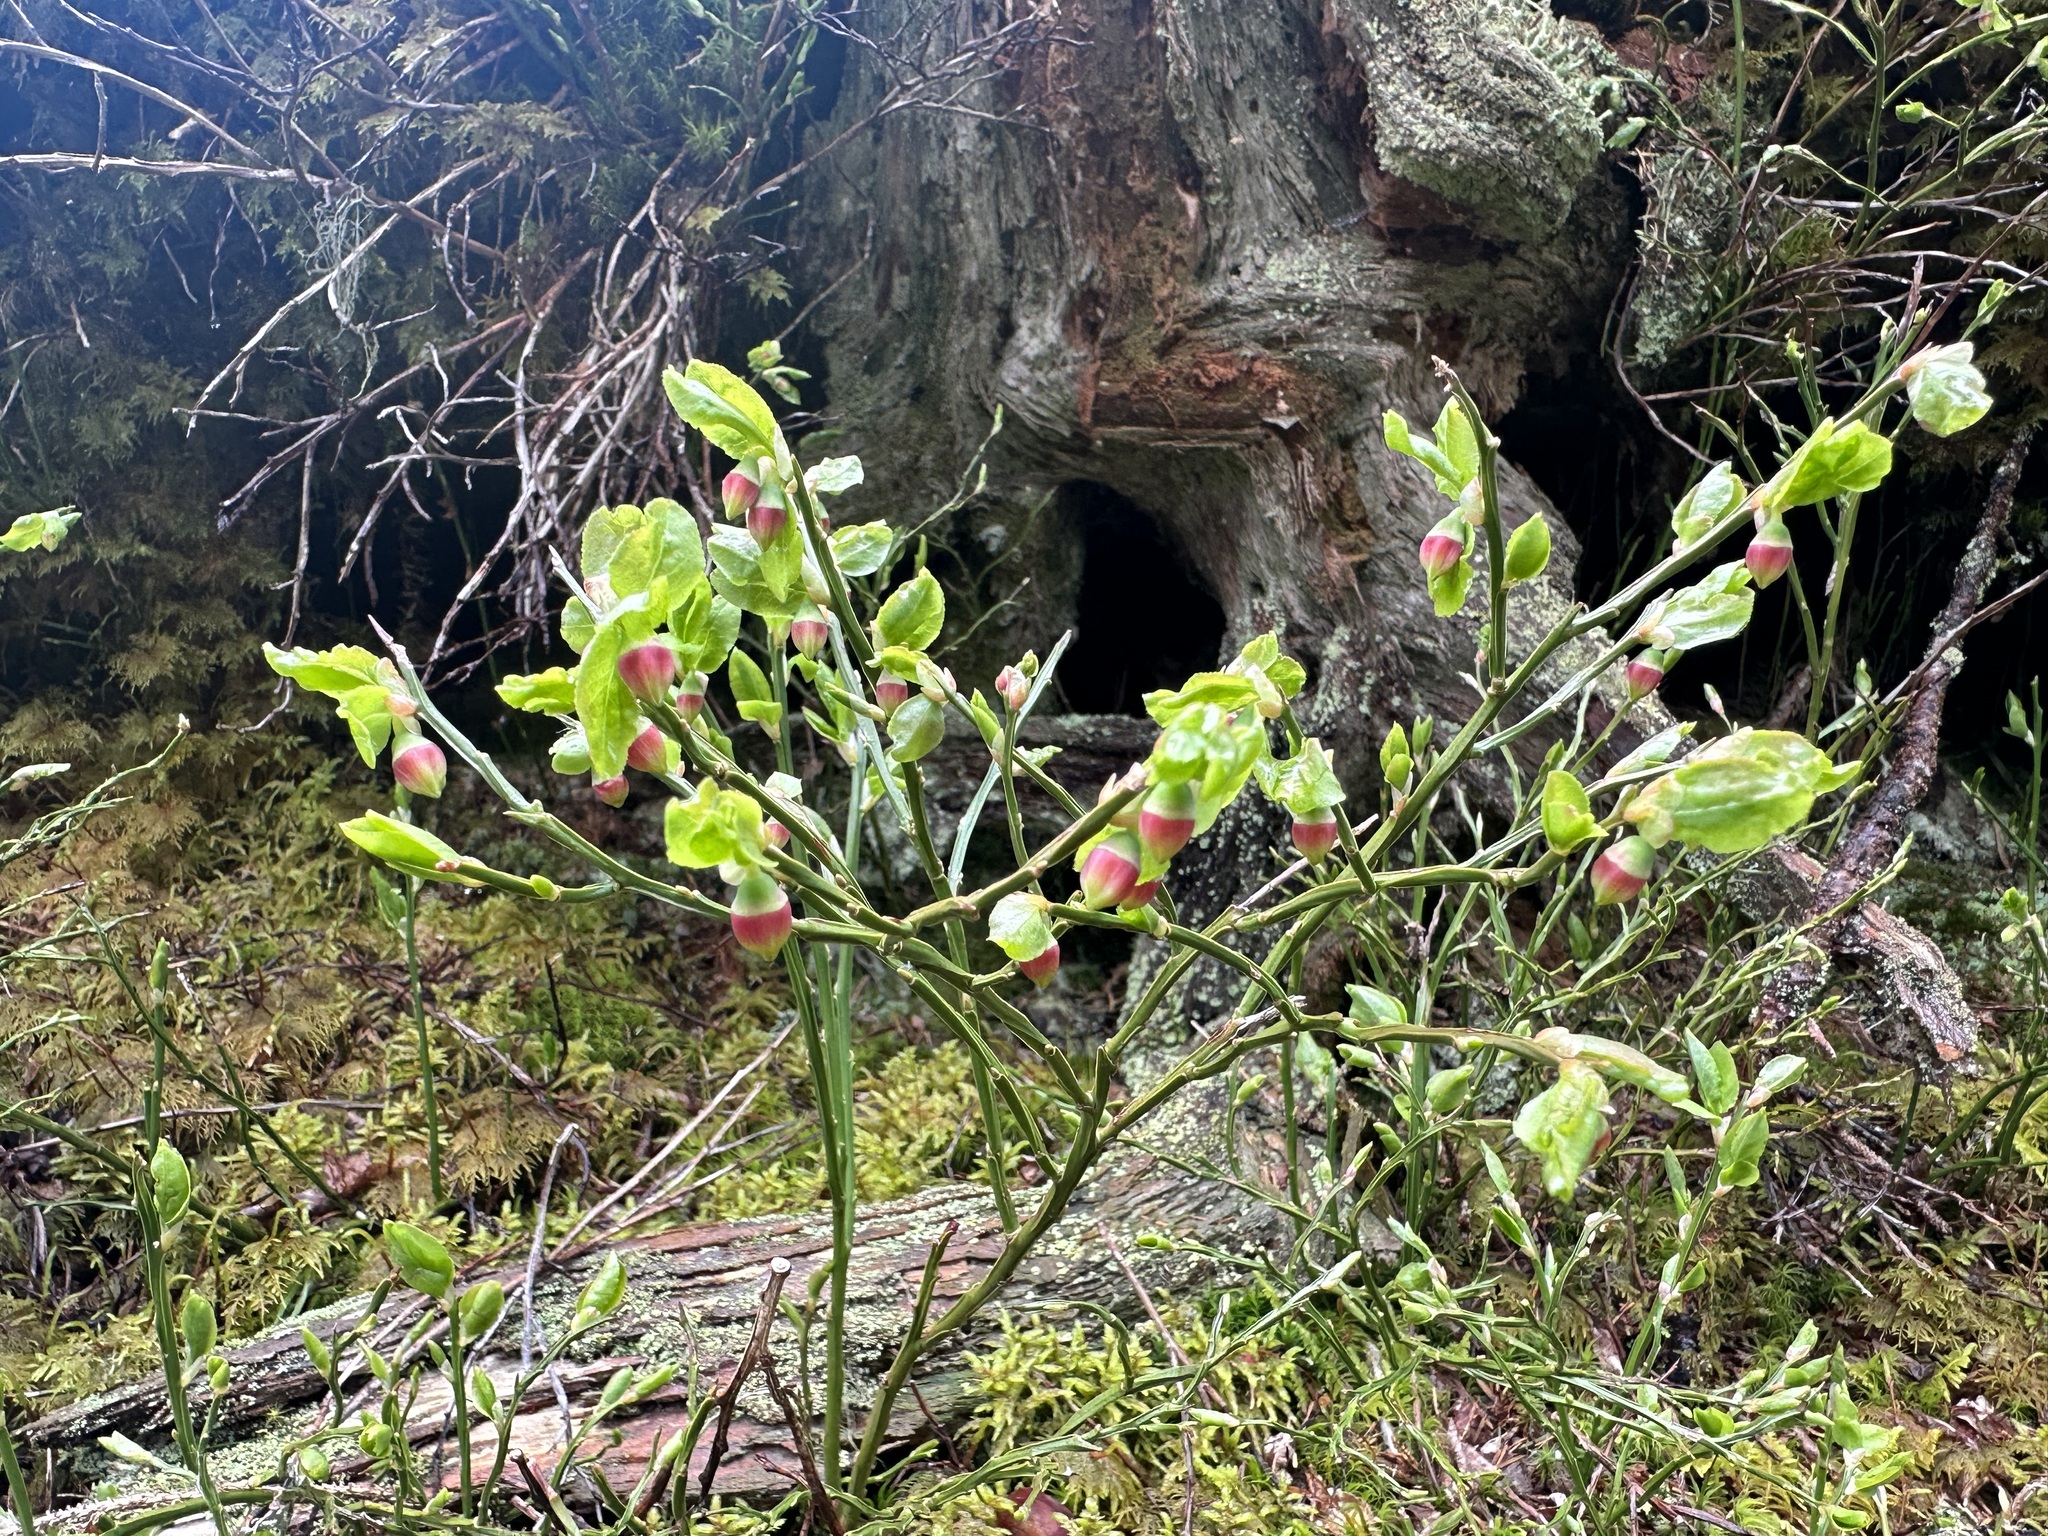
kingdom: Plantae
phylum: Tracheophyta
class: Magnoliopsida
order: Ericales
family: Ericaceae
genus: Vaccinium
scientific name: Vaccinium myrtillus
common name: Bilberry
